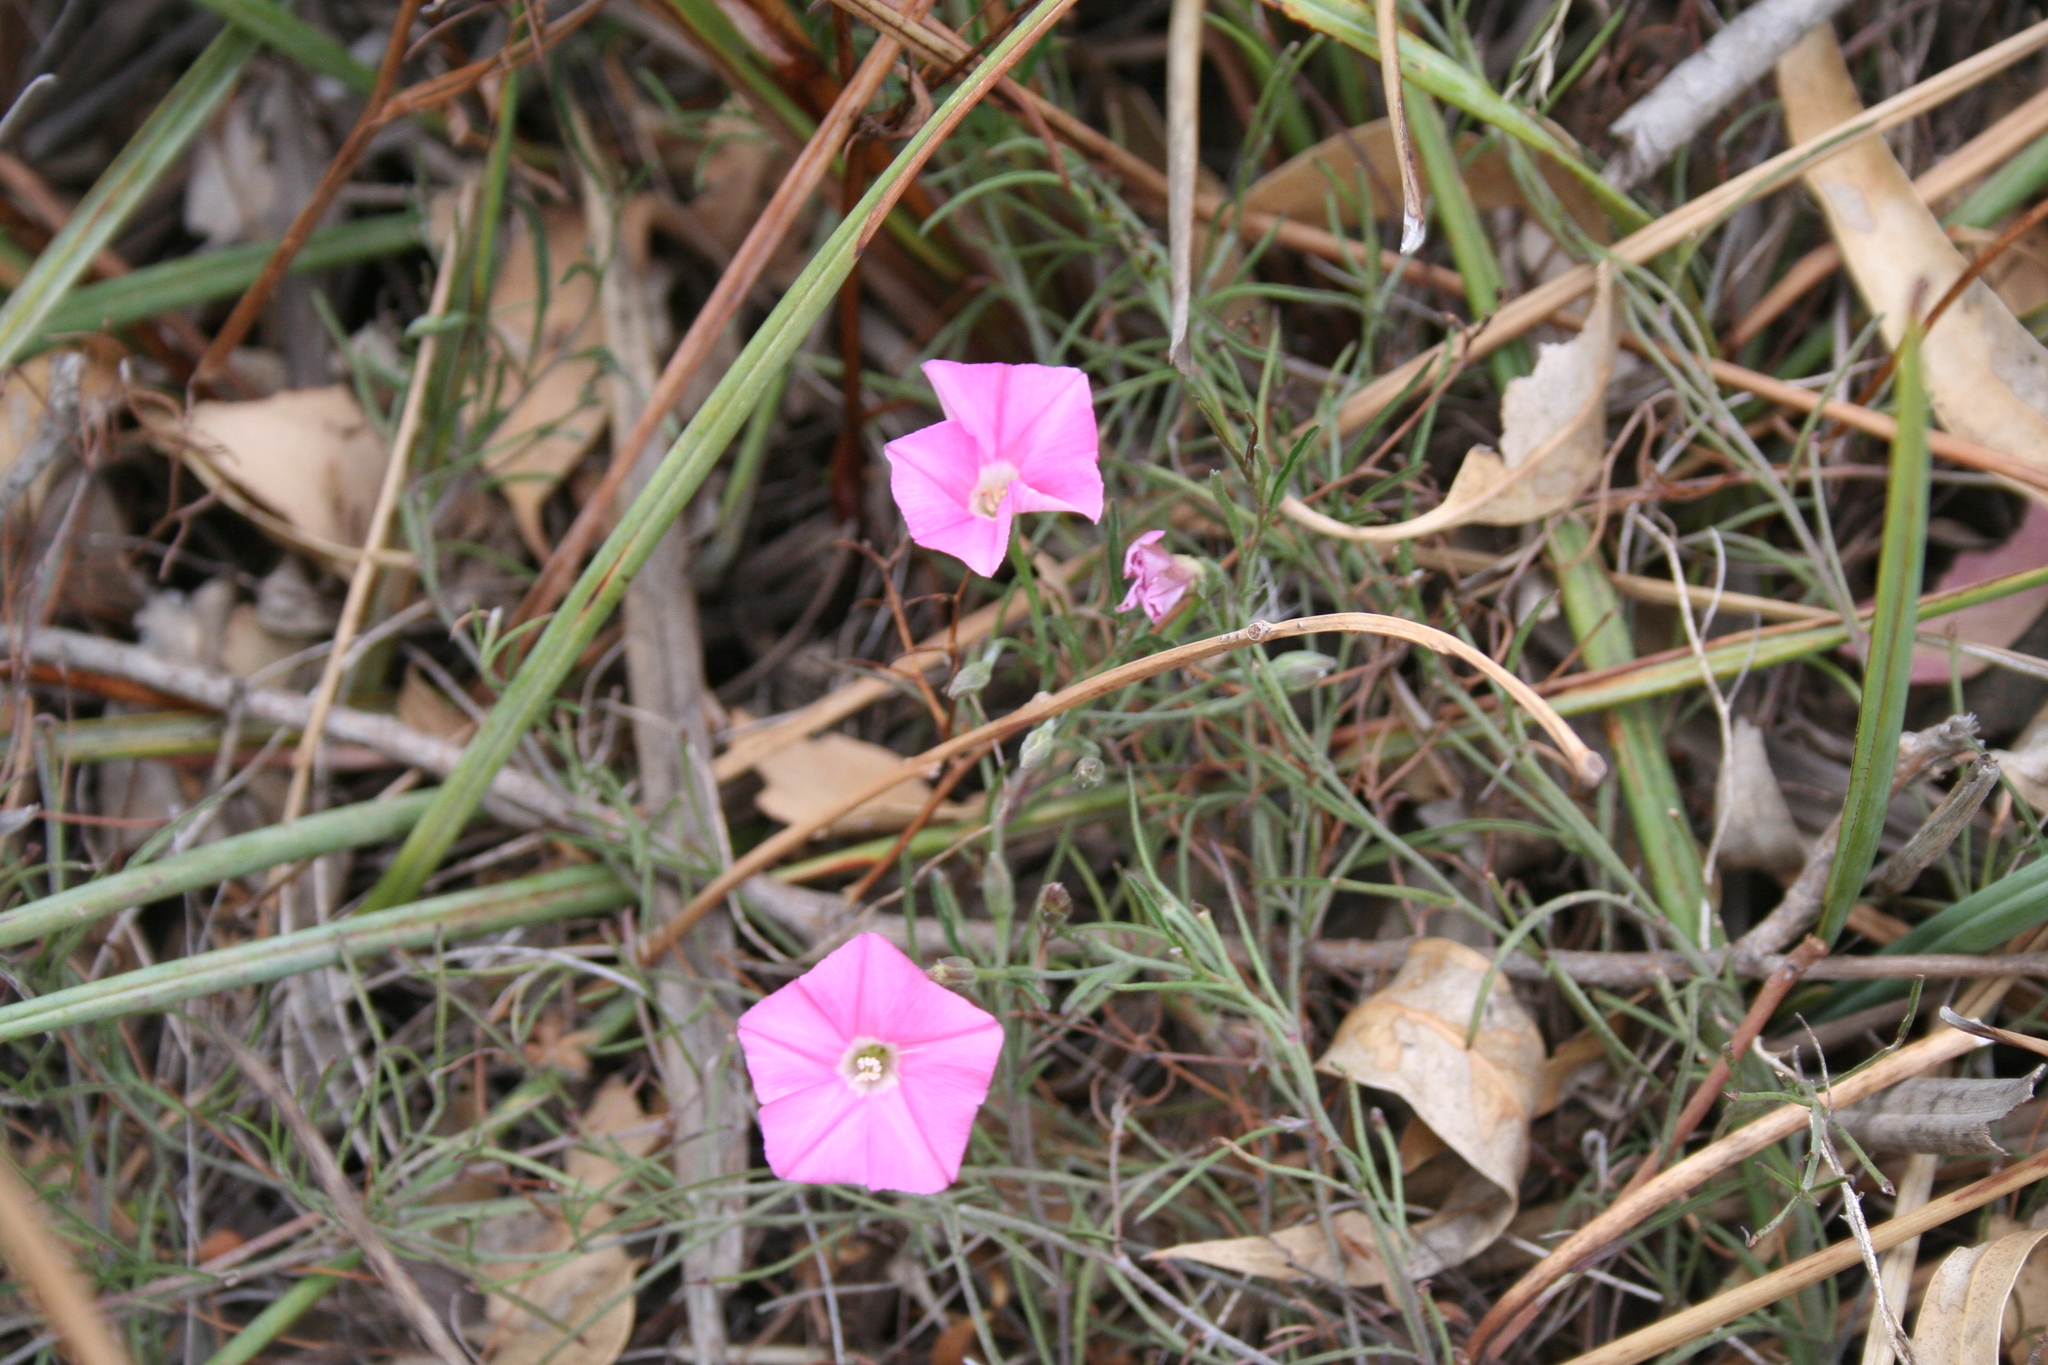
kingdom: Plantae
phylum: Tracheophyta
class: Magnoliopsida
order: Solanales
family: Convolvulaceae
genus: Convolvulus
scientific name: Convolvulus angustissimus
